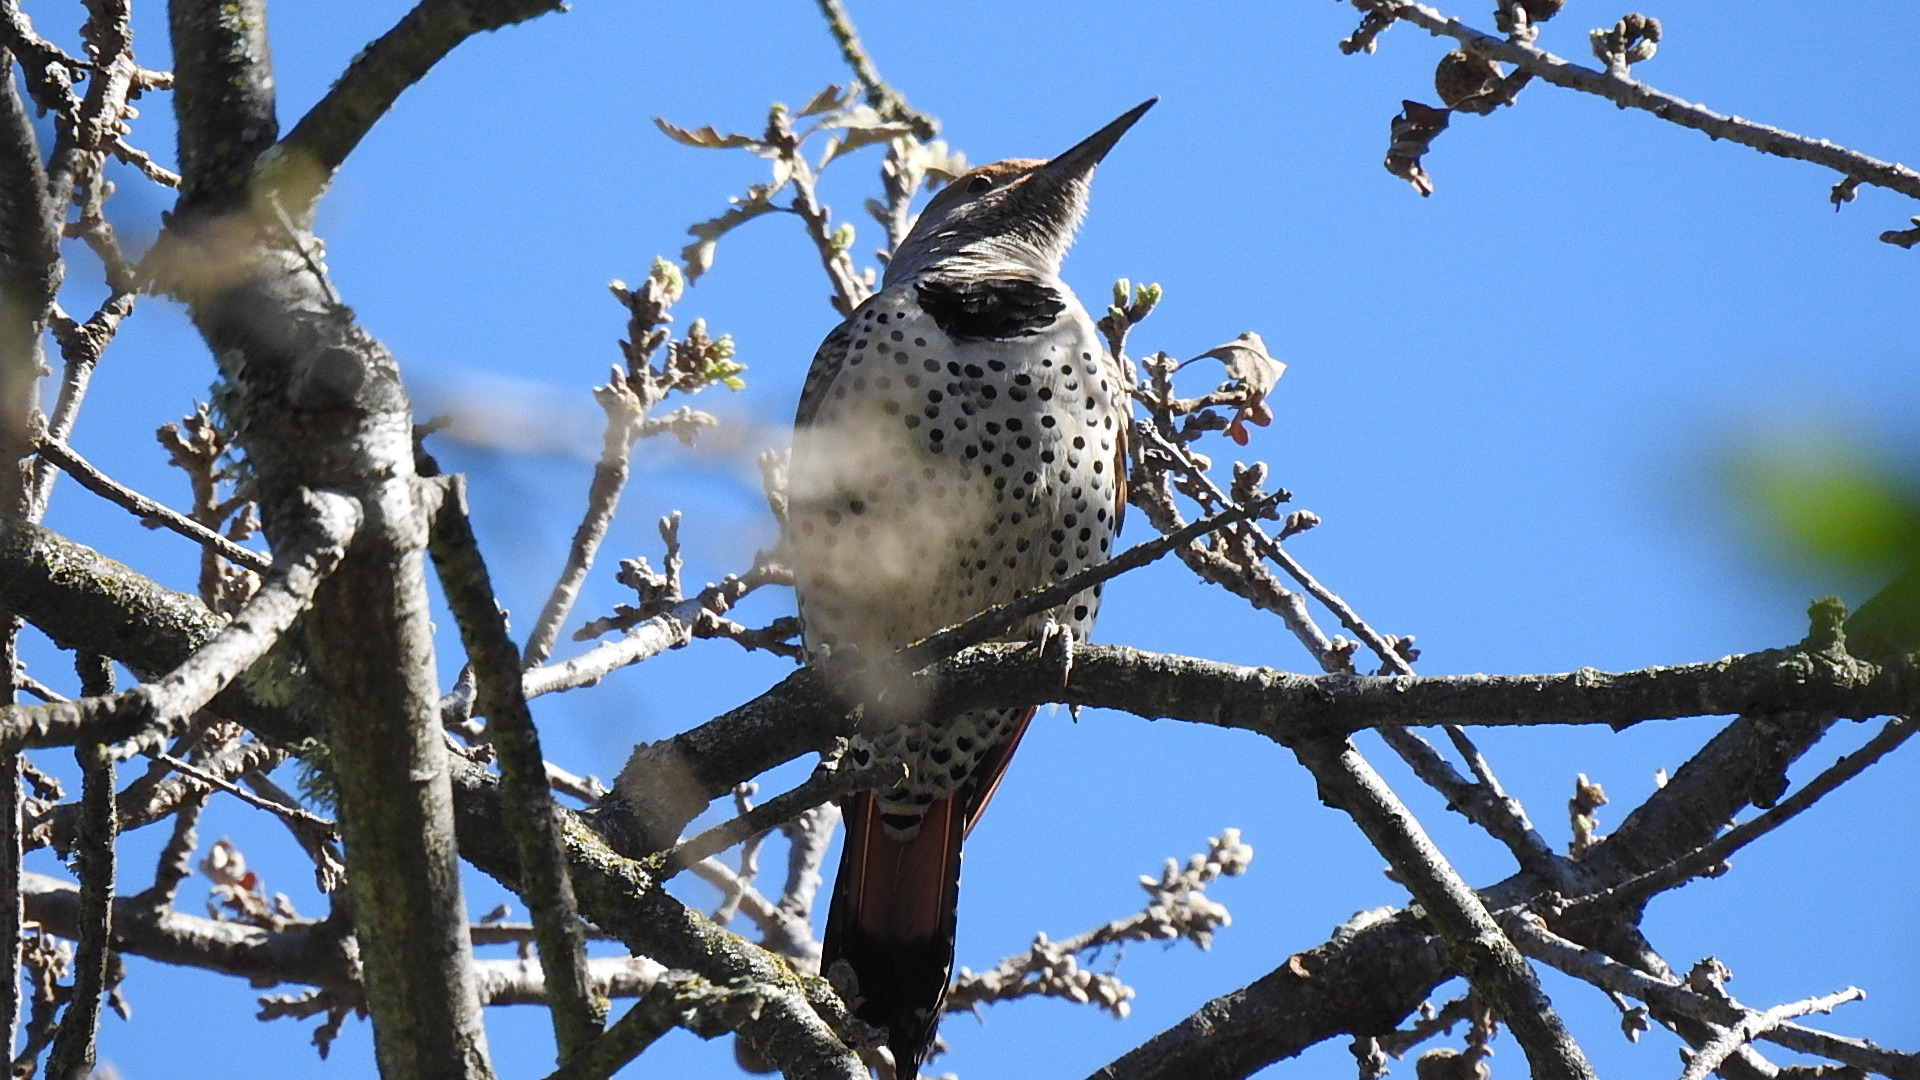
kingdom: Animalia
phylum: Chordata
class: Aves
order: Piciformes
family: Picidae
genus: Colaptes
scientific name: Colaptes auratus
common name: Northern flicker
